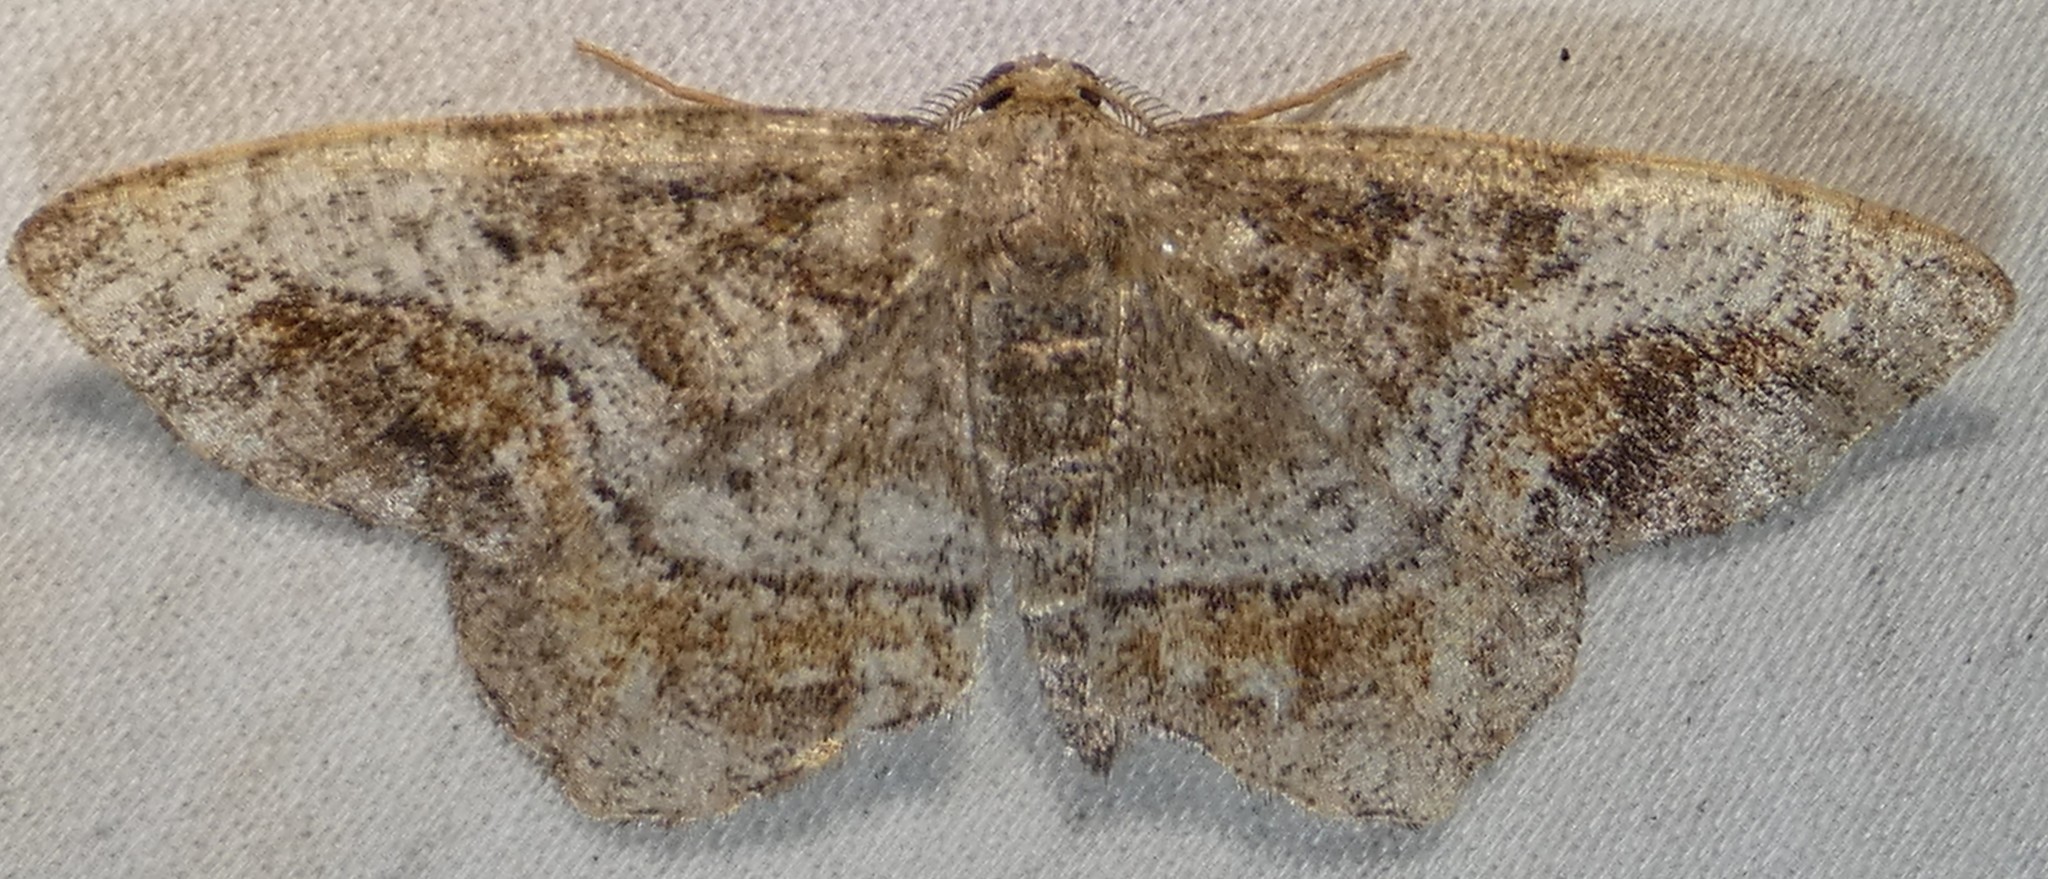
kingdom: Animalia
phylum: Arthropoda
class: Insecta
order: Lepidoptera
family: Geometridae
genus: Hypagyrtis
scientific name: Hypagyrtis unipunctata
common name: One-spotted variant
